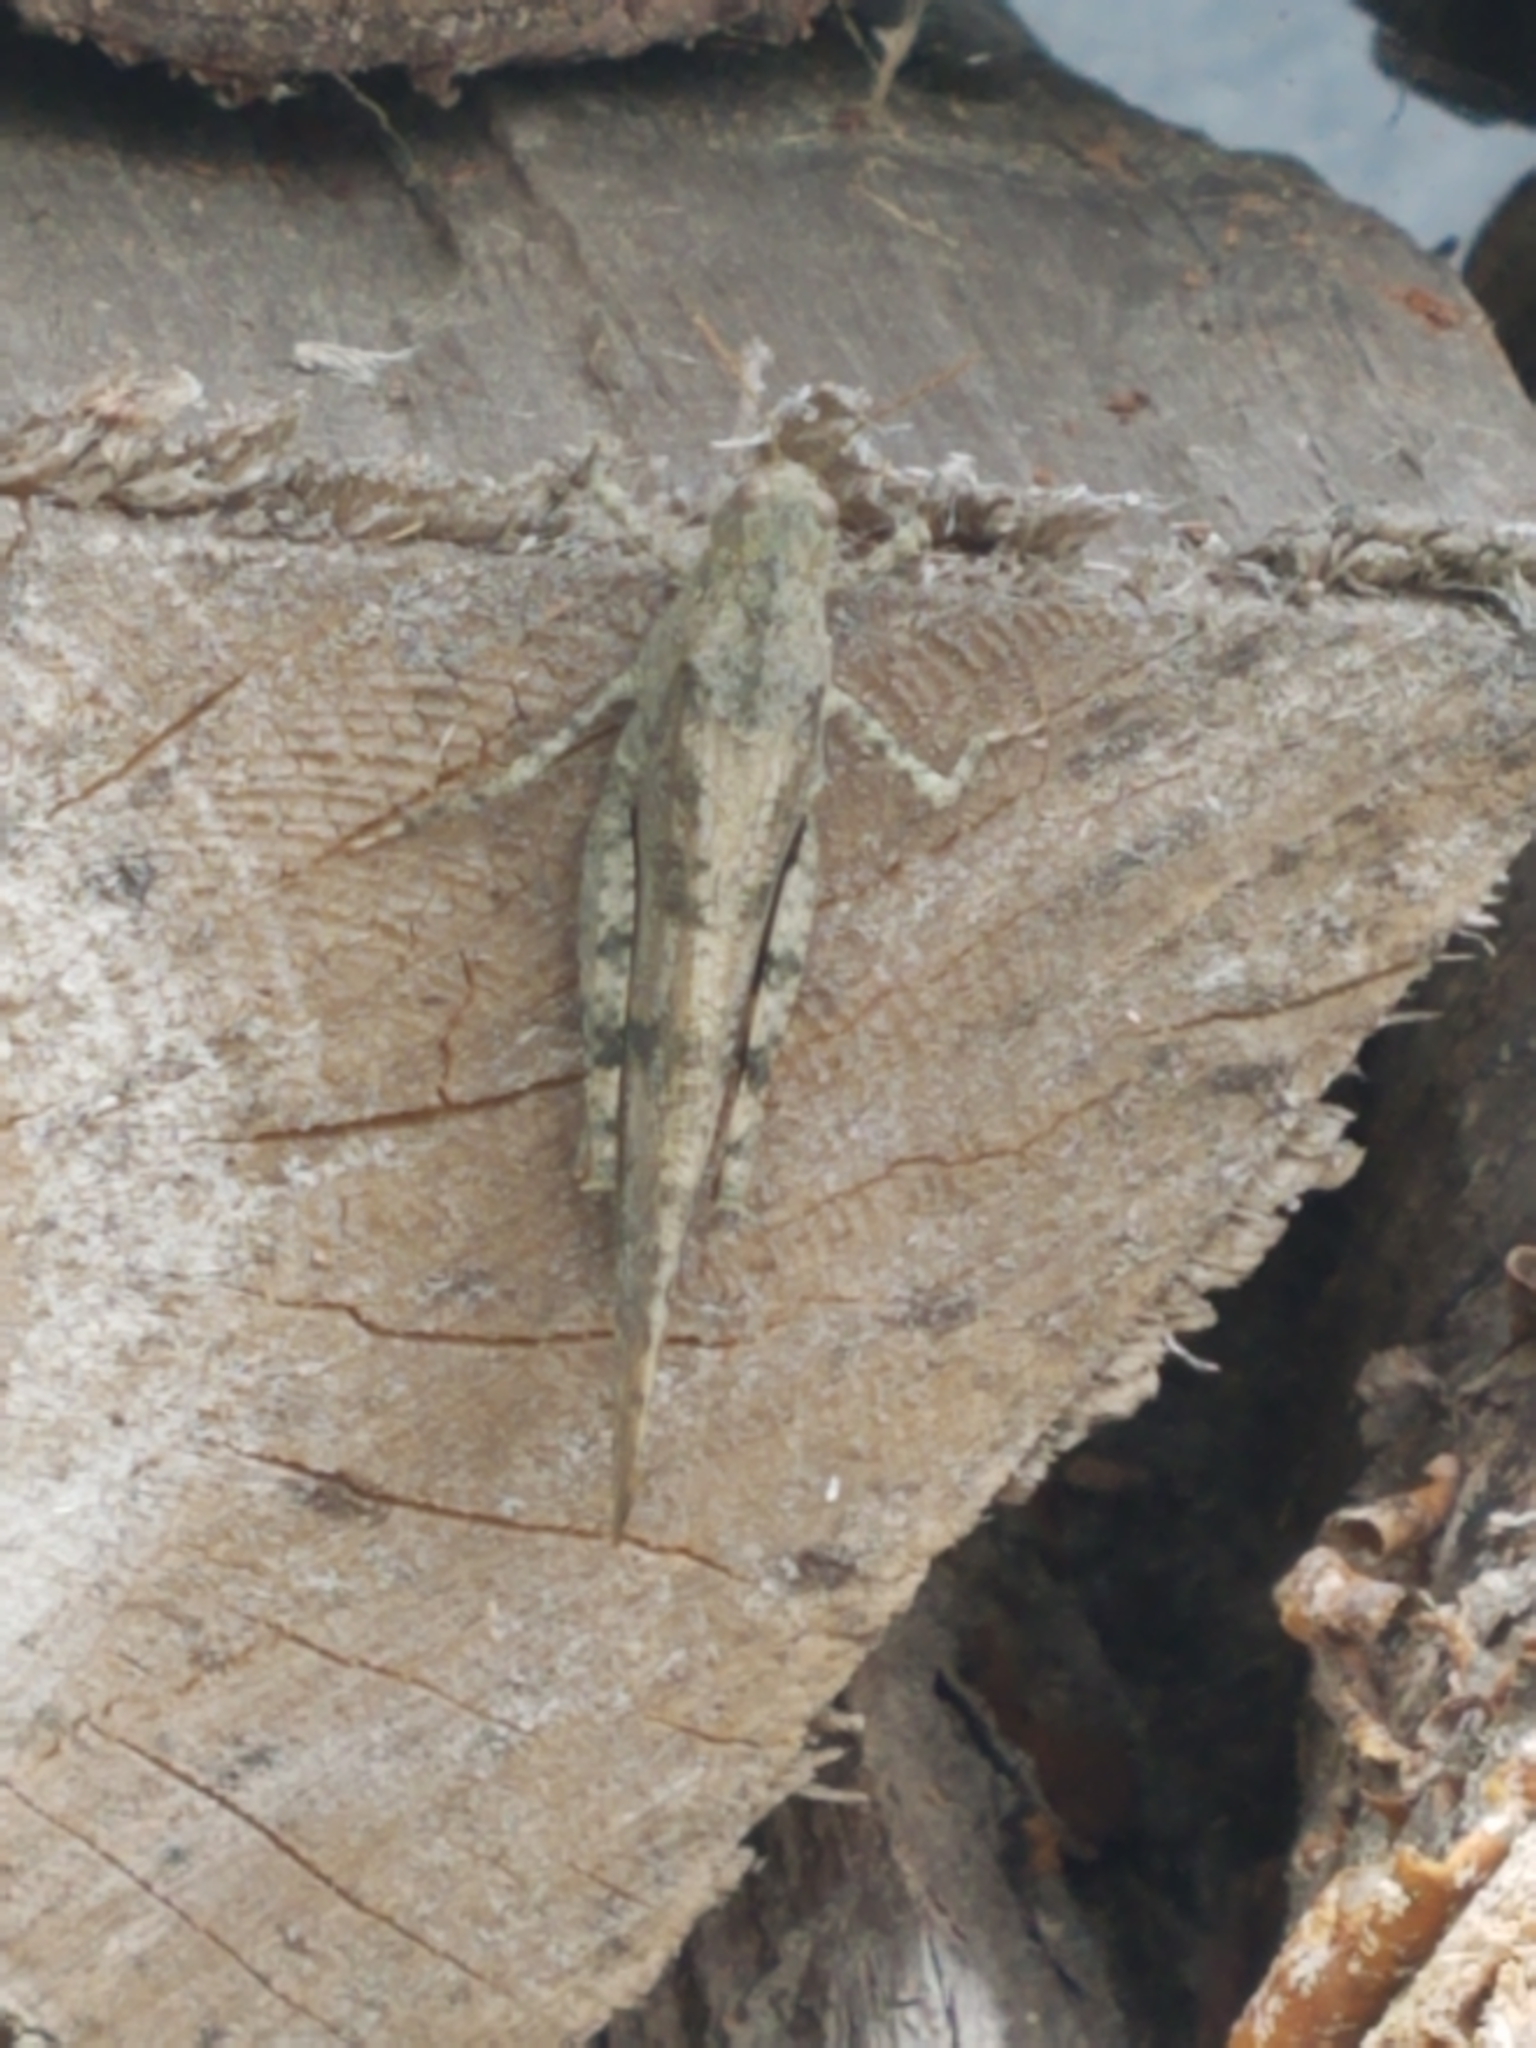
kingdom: Animalia
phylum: Arthropoda
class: Insecta
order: Orthoptera
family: Acrididae
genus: Dissosteira
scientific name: Dissosteira carolina
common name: Carolina grasshopper
